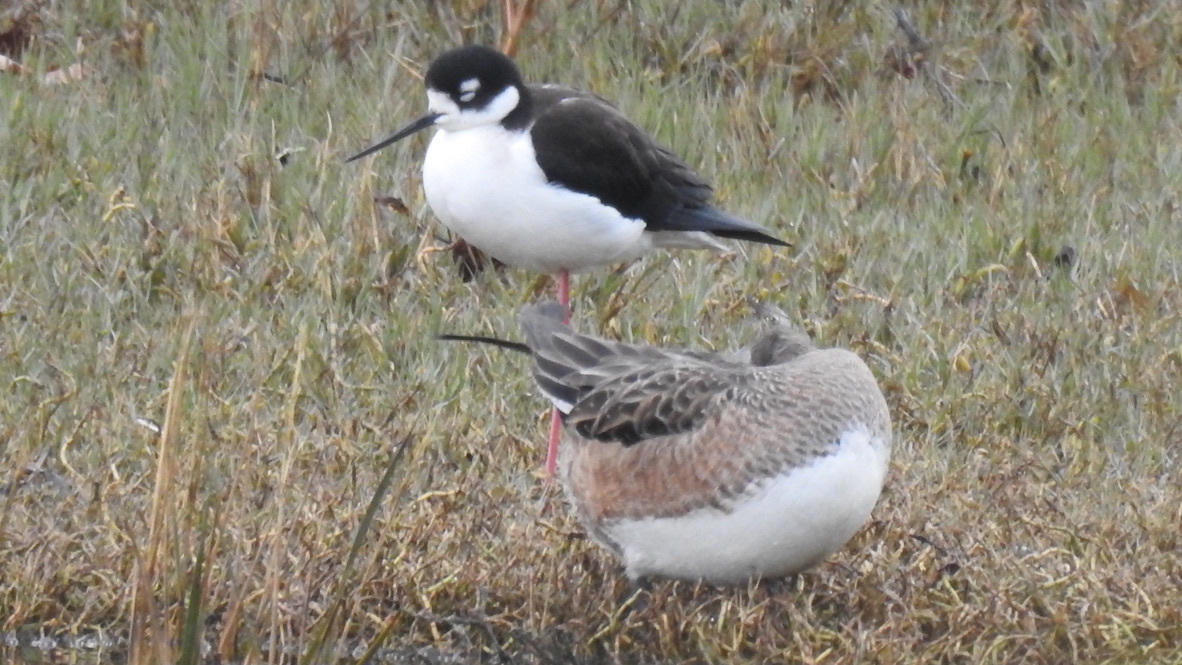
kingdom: Animalia
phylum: Chordata
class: Aves
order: Charadriiformes
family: Recurvirostridae
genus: Himantopus
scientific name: Himantopus mexicanus
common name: Black-necked stilt
